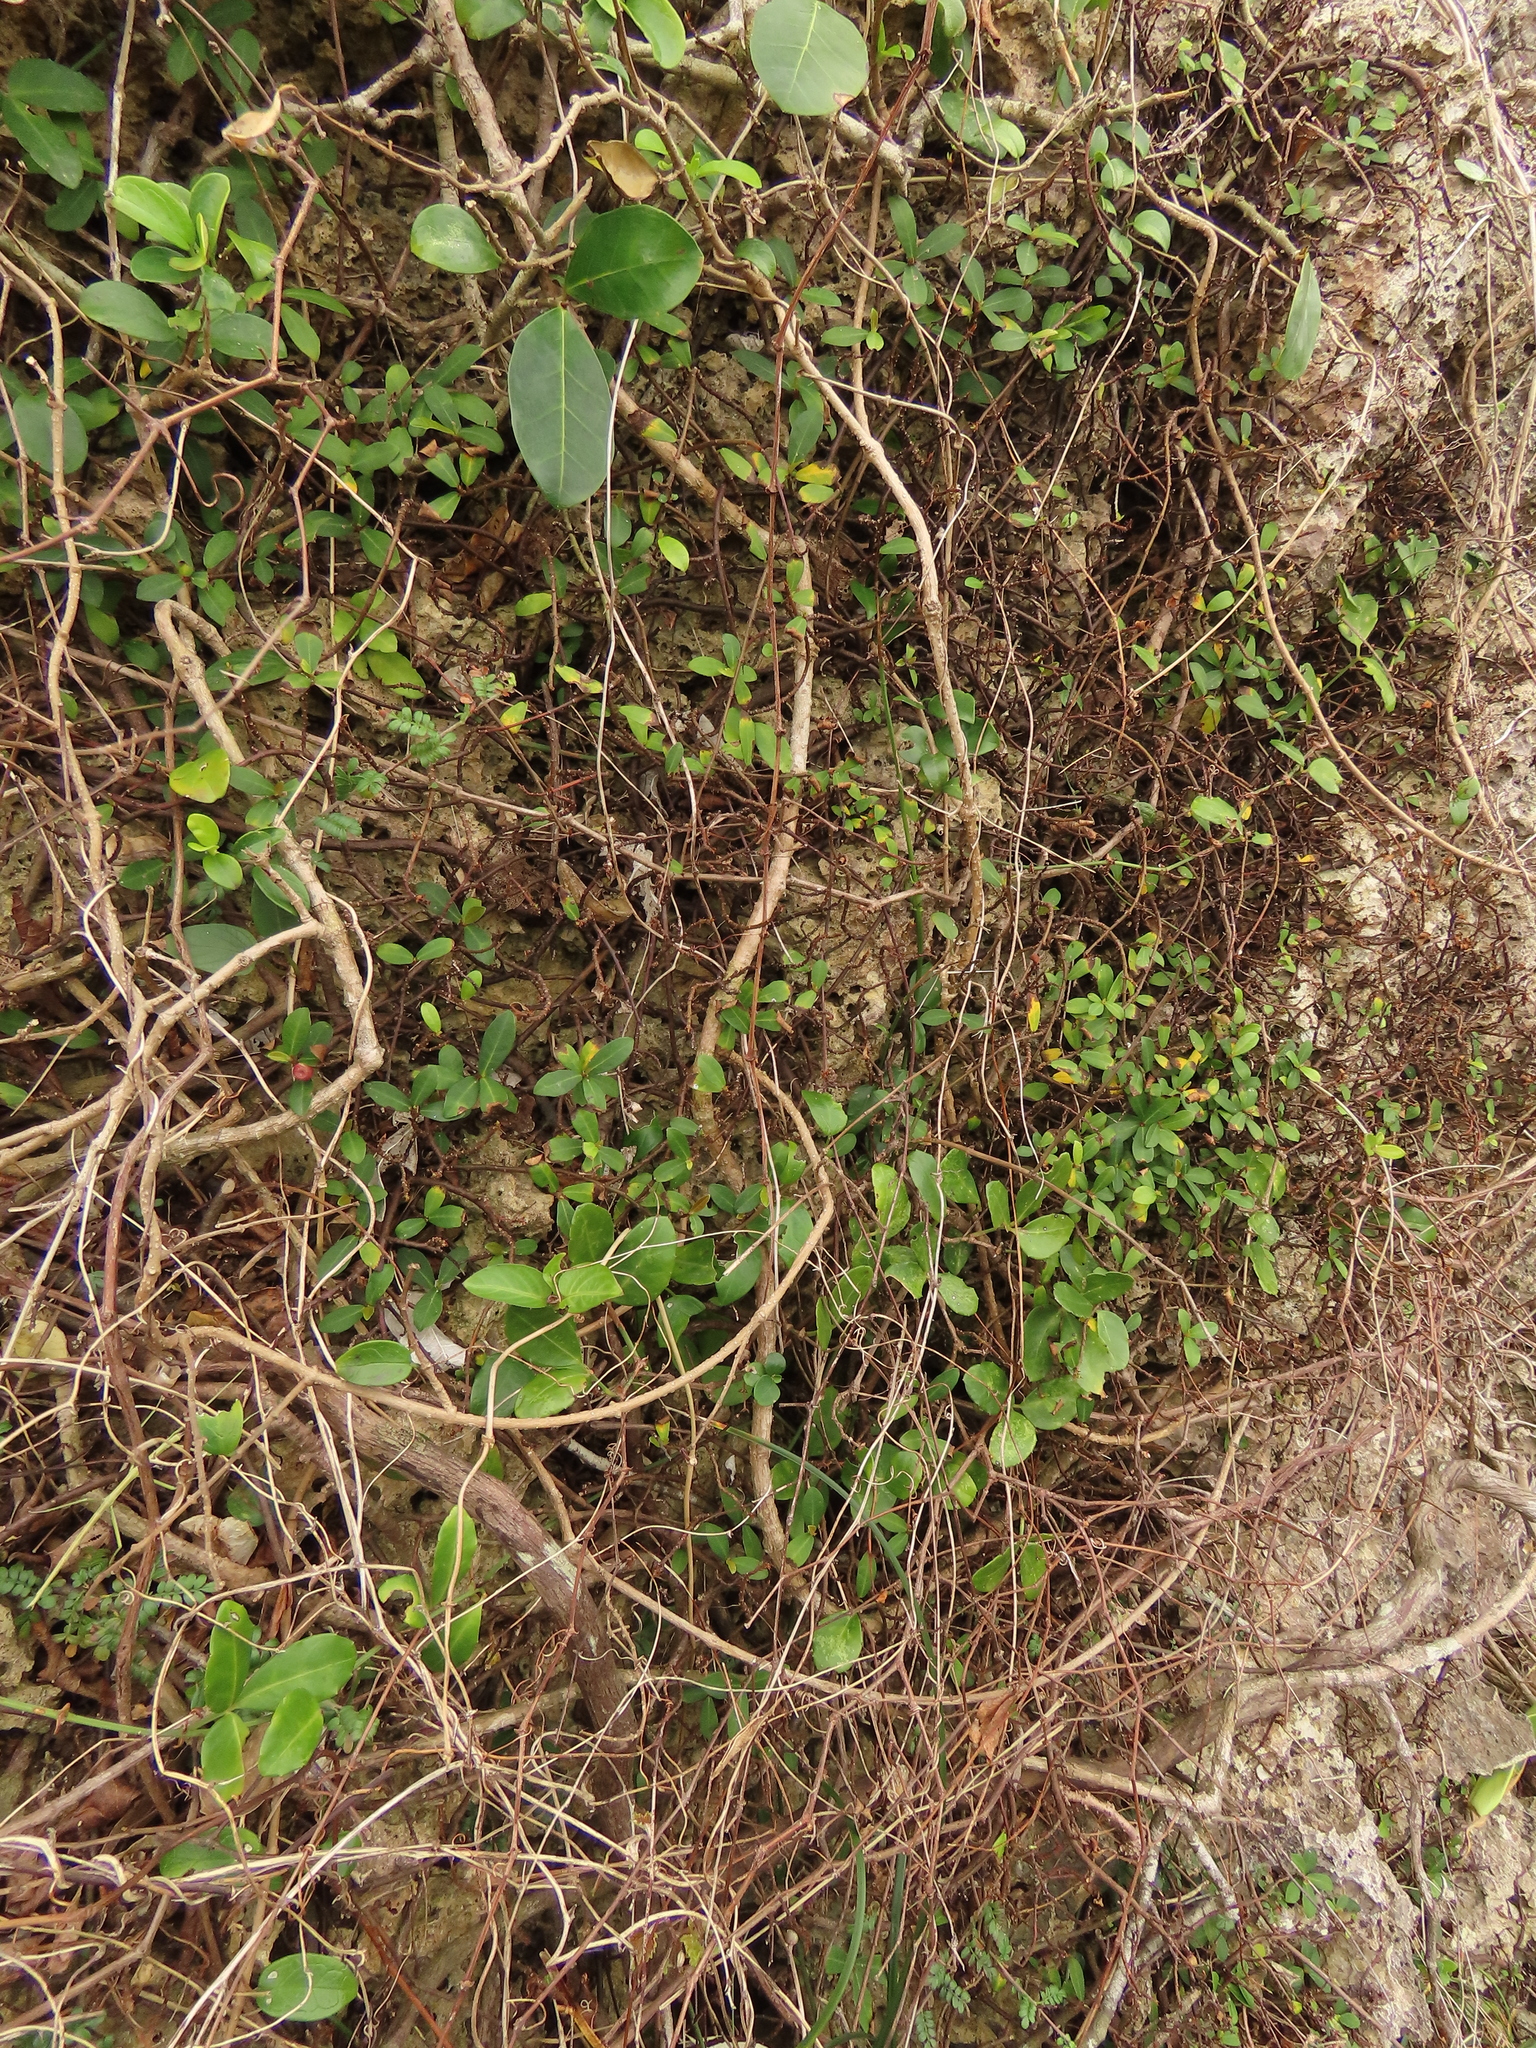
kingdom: Plantae
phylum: Tracheophyta
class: Magnoliopsida
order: Rosales
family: Moraceae
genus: Ficus
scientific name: Ficus vaccinioides
